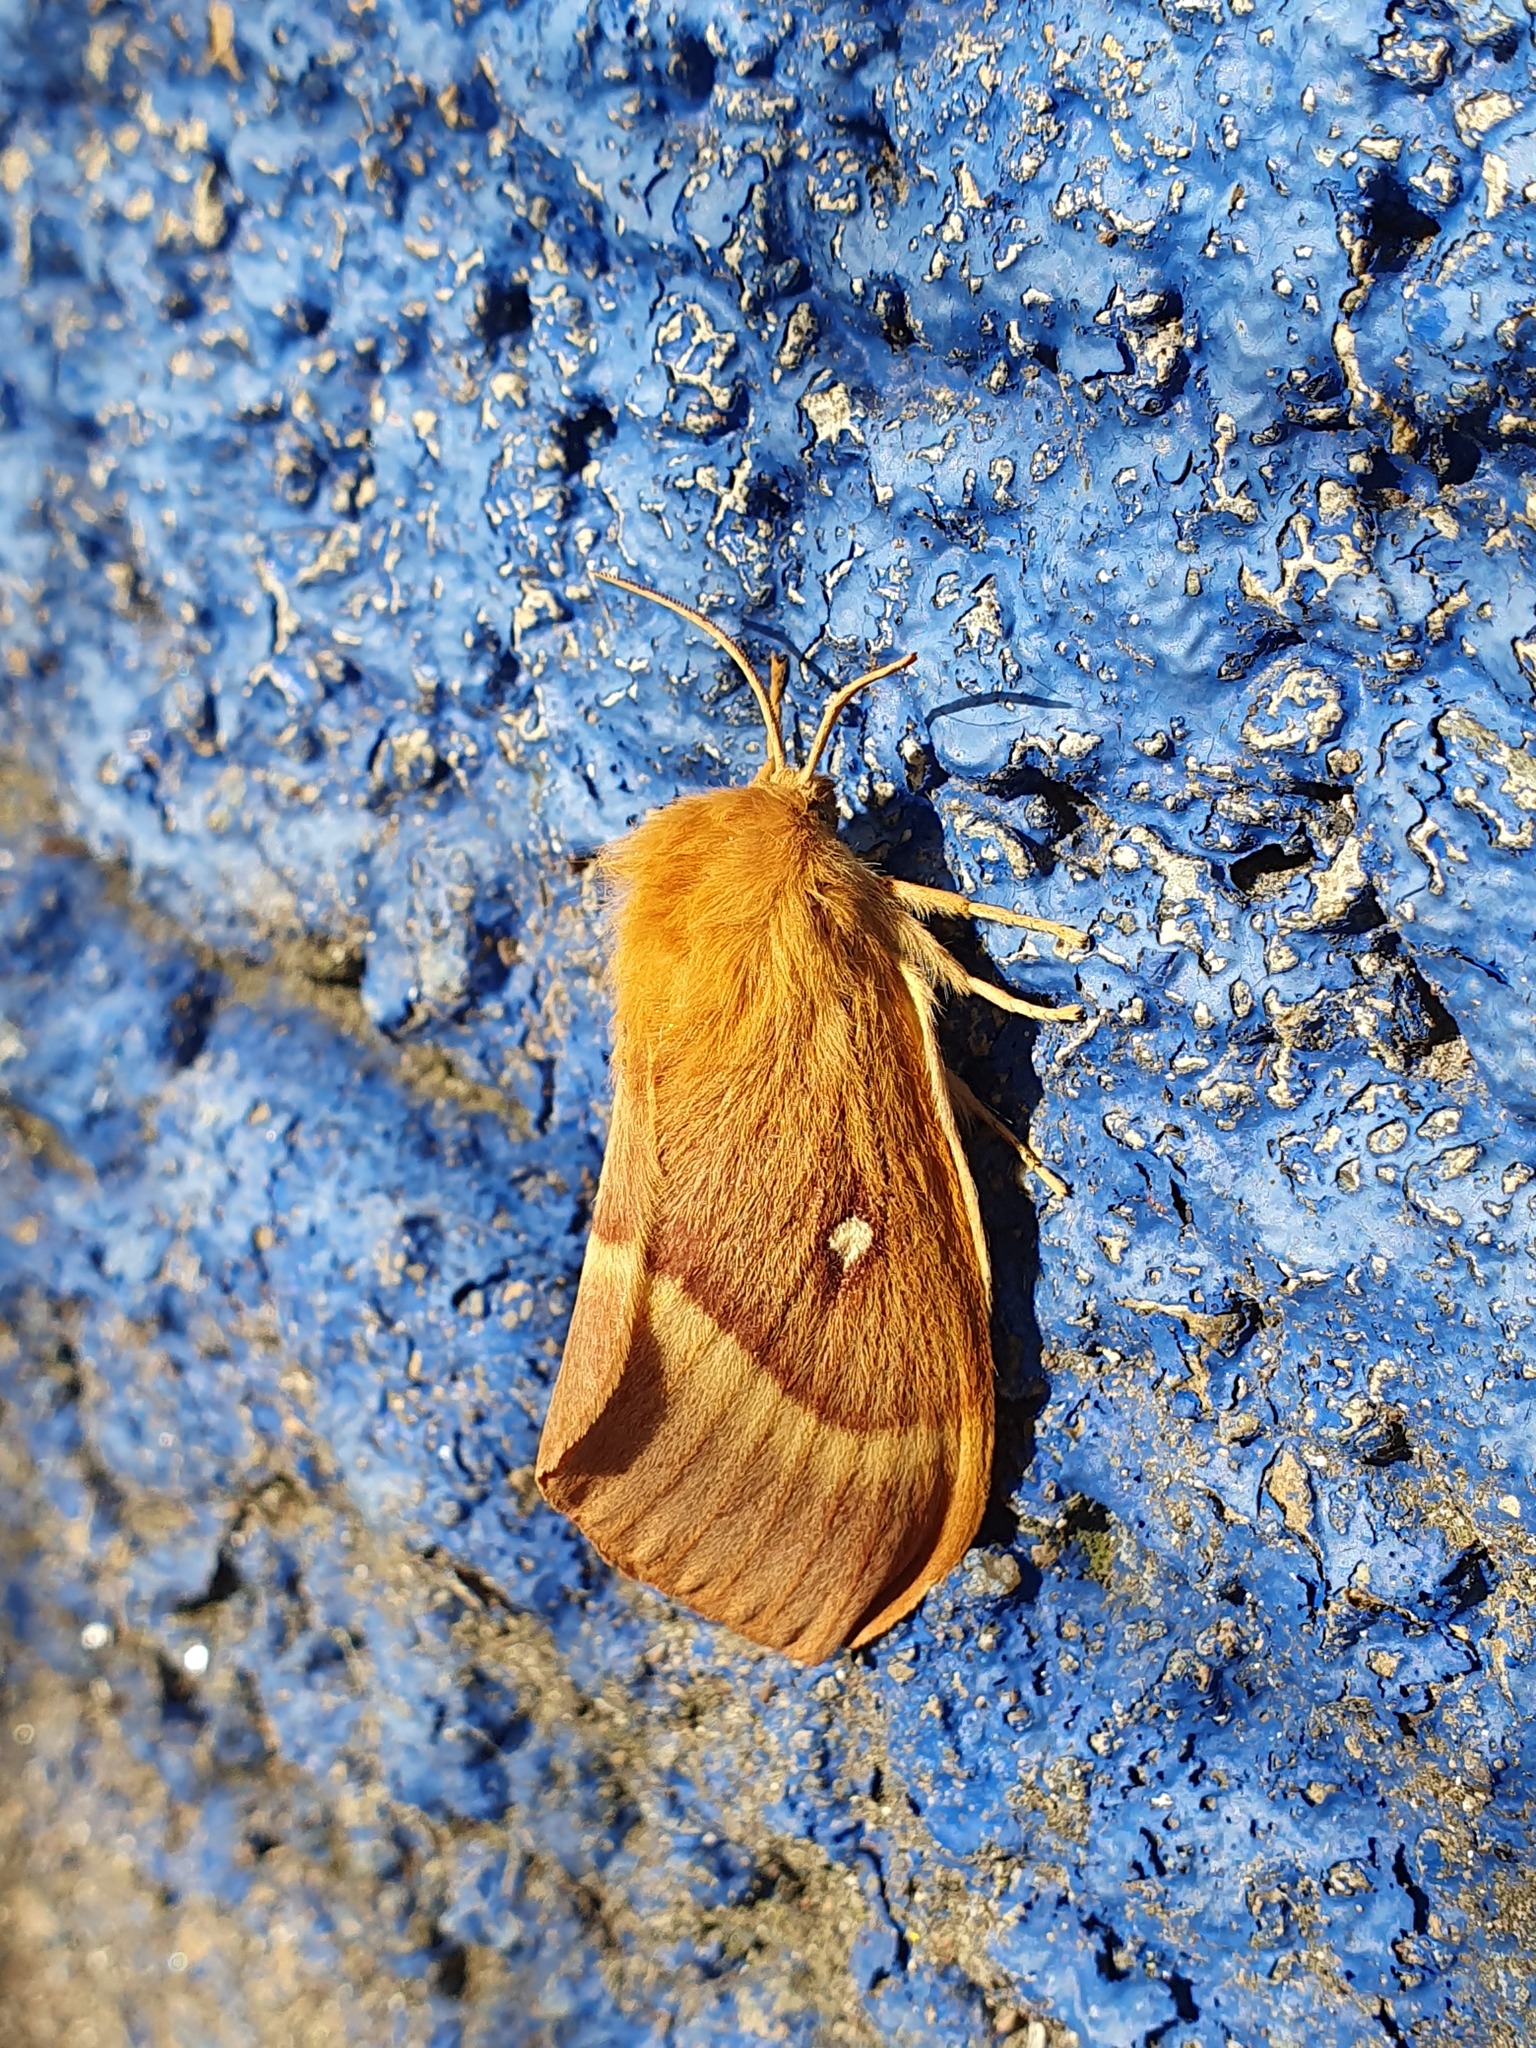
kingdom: Animalia
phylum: Arthropoda
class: Insecta
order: Lepidoptera
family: Lasiocampidae
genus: Lasiocampa
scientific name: Lasiocampa quercus
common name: Oak eggar
